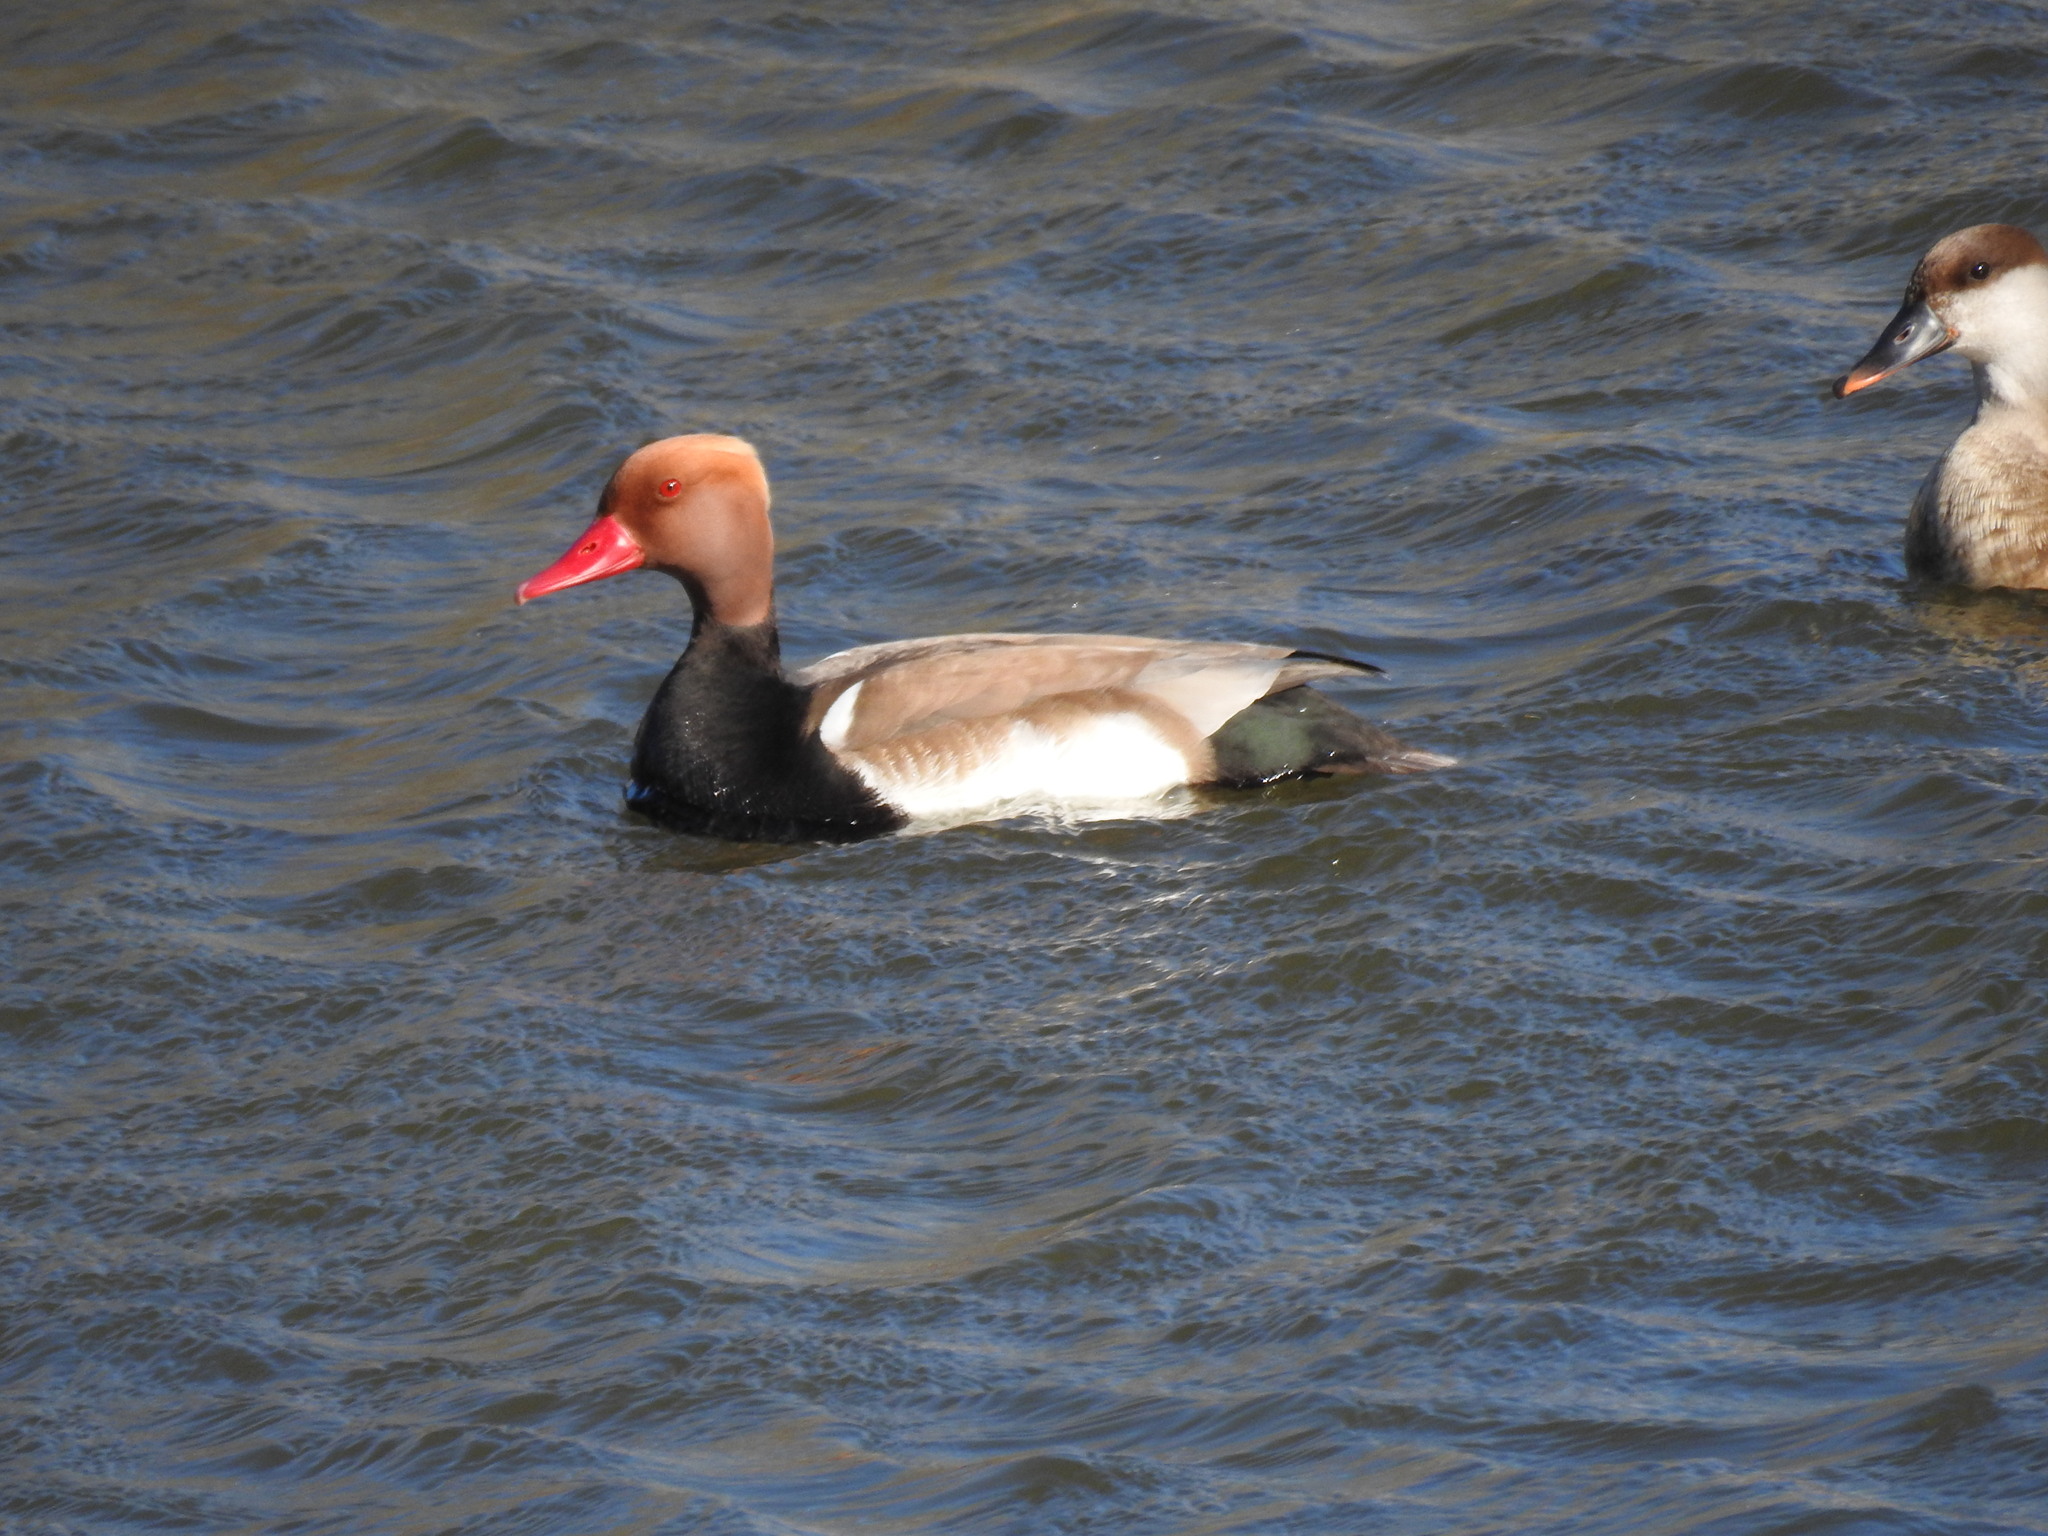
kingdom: Animalia
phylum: Chordata
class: Aves
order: Anseriformes
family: Anatidae
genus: Netta
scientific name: Netta rufina
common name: Red-crested pochard
